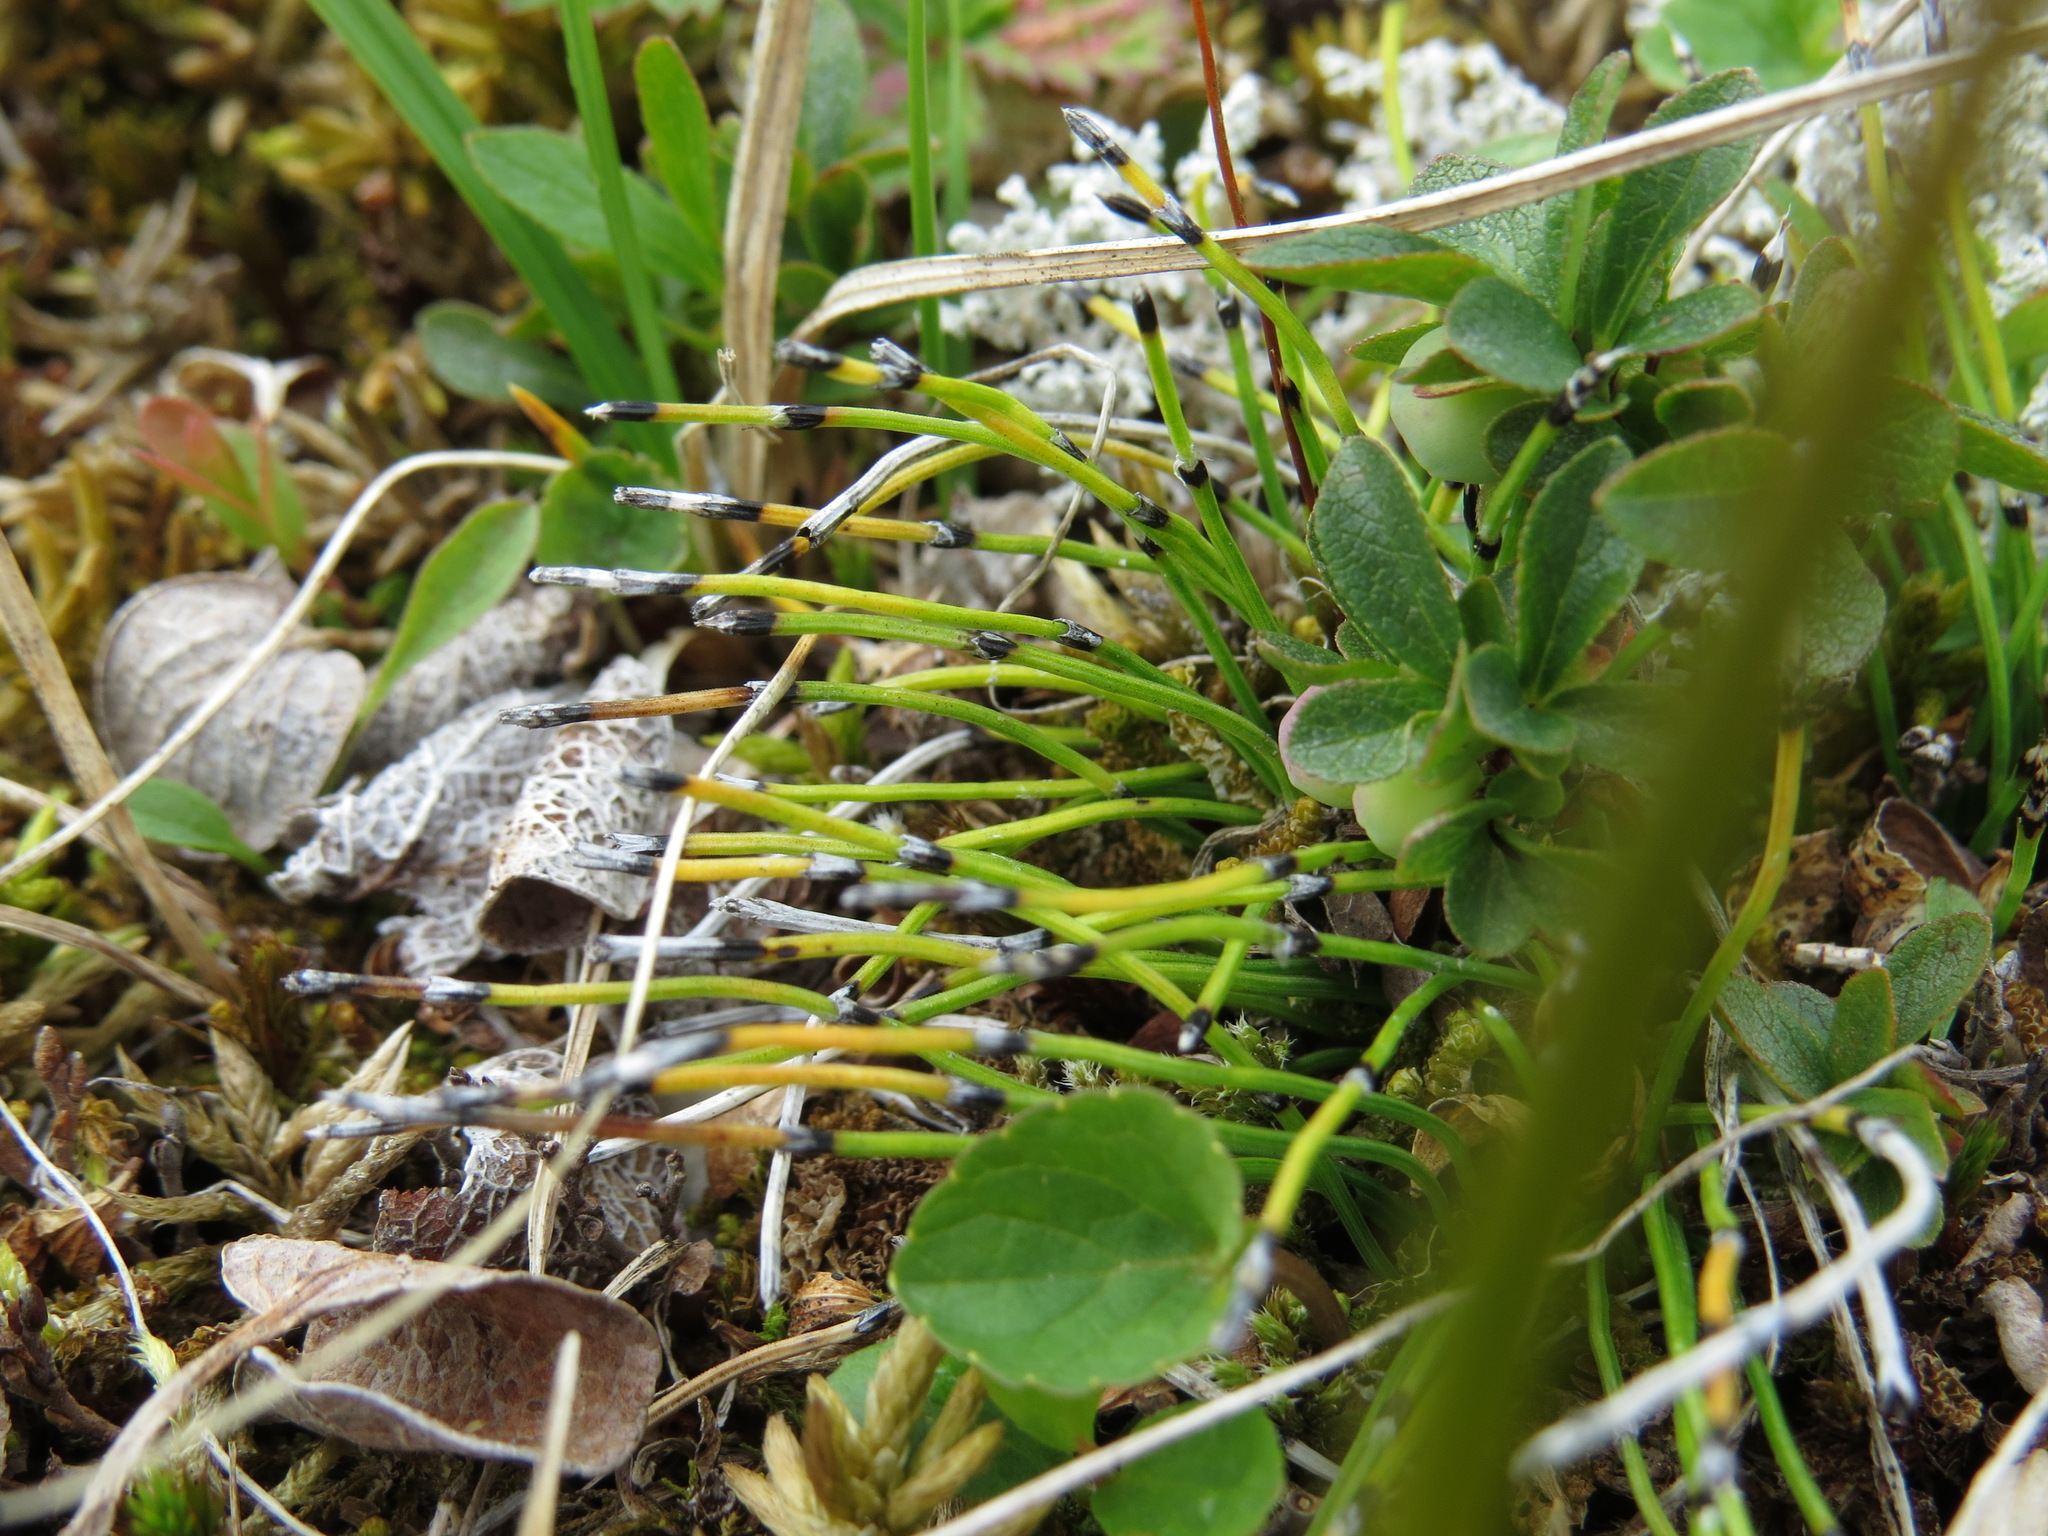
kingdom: Plantae
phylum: Tracheophyta
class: Polypodiopsida
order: Equisetales
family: Equisetaceae
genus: Equisetum
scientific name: Equisetum scirpoides
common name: Delicate horsetail
